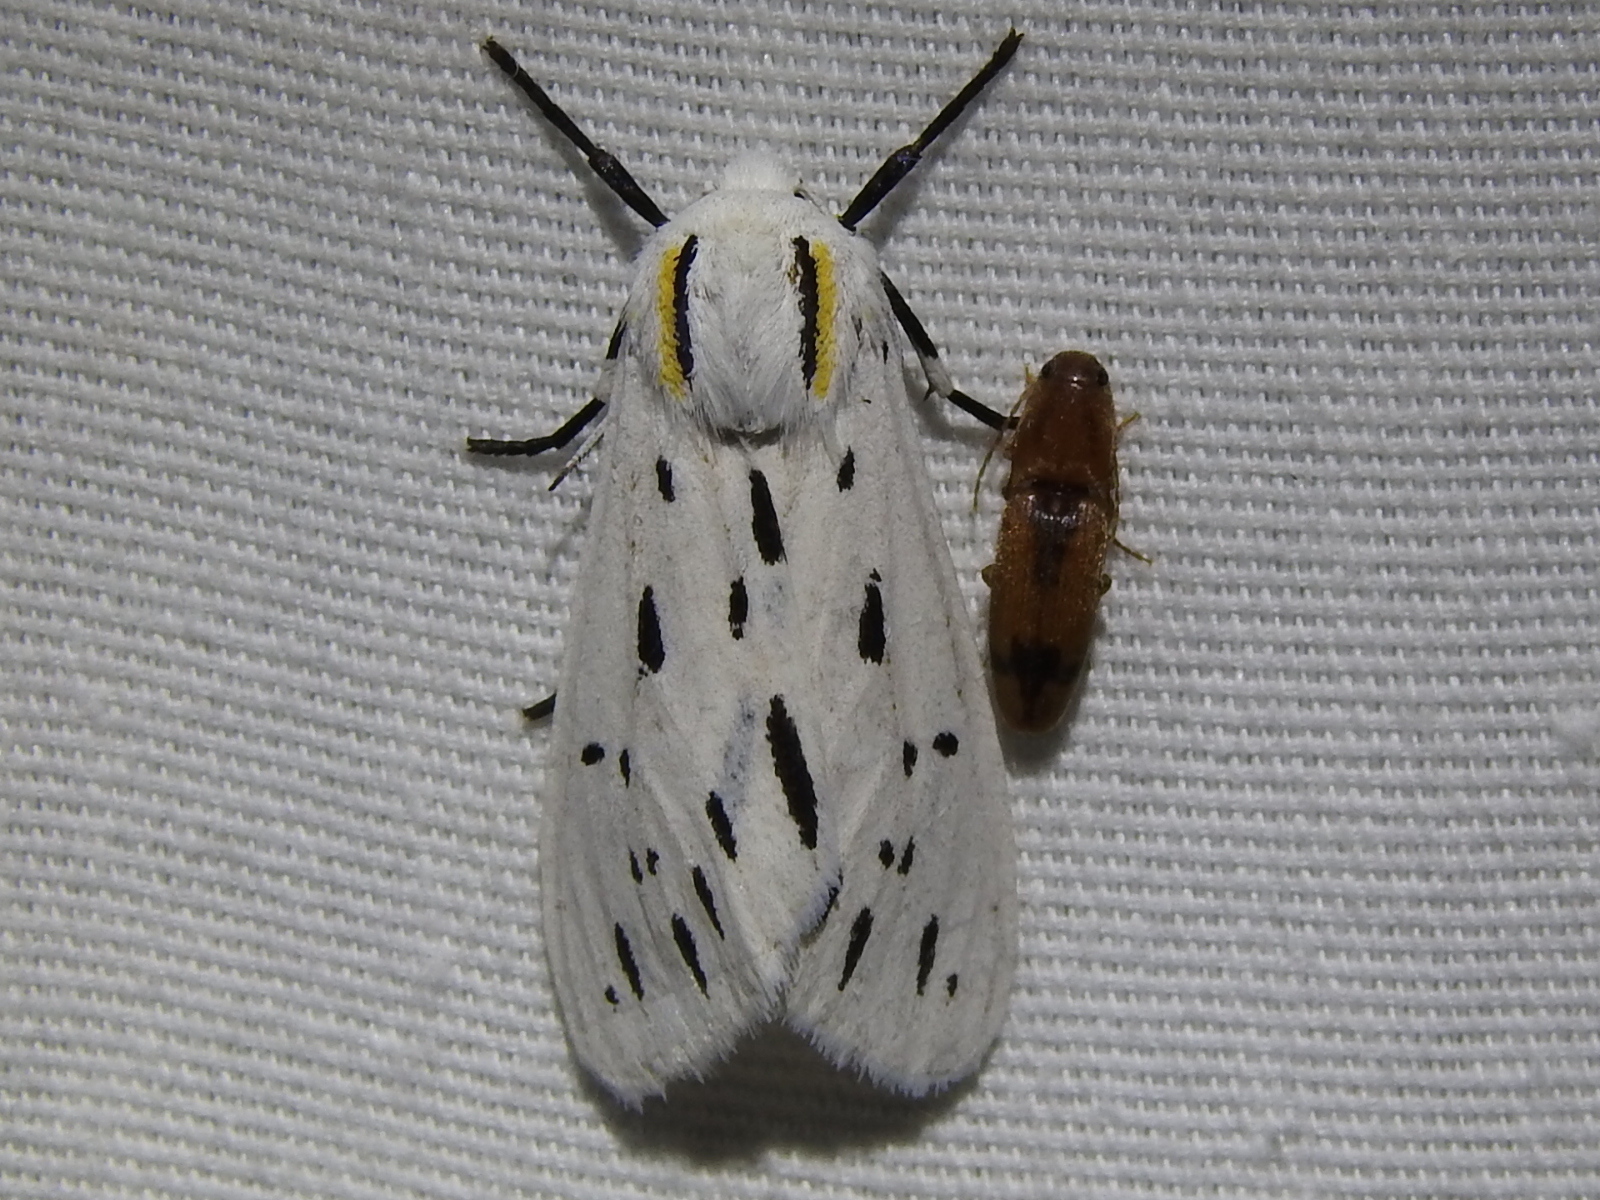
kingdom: Animalia
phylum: Arthropoda
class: Insecta
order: Lepidoptera
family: Erebidae
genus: Ectypia
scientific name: Ectypia bivittata
